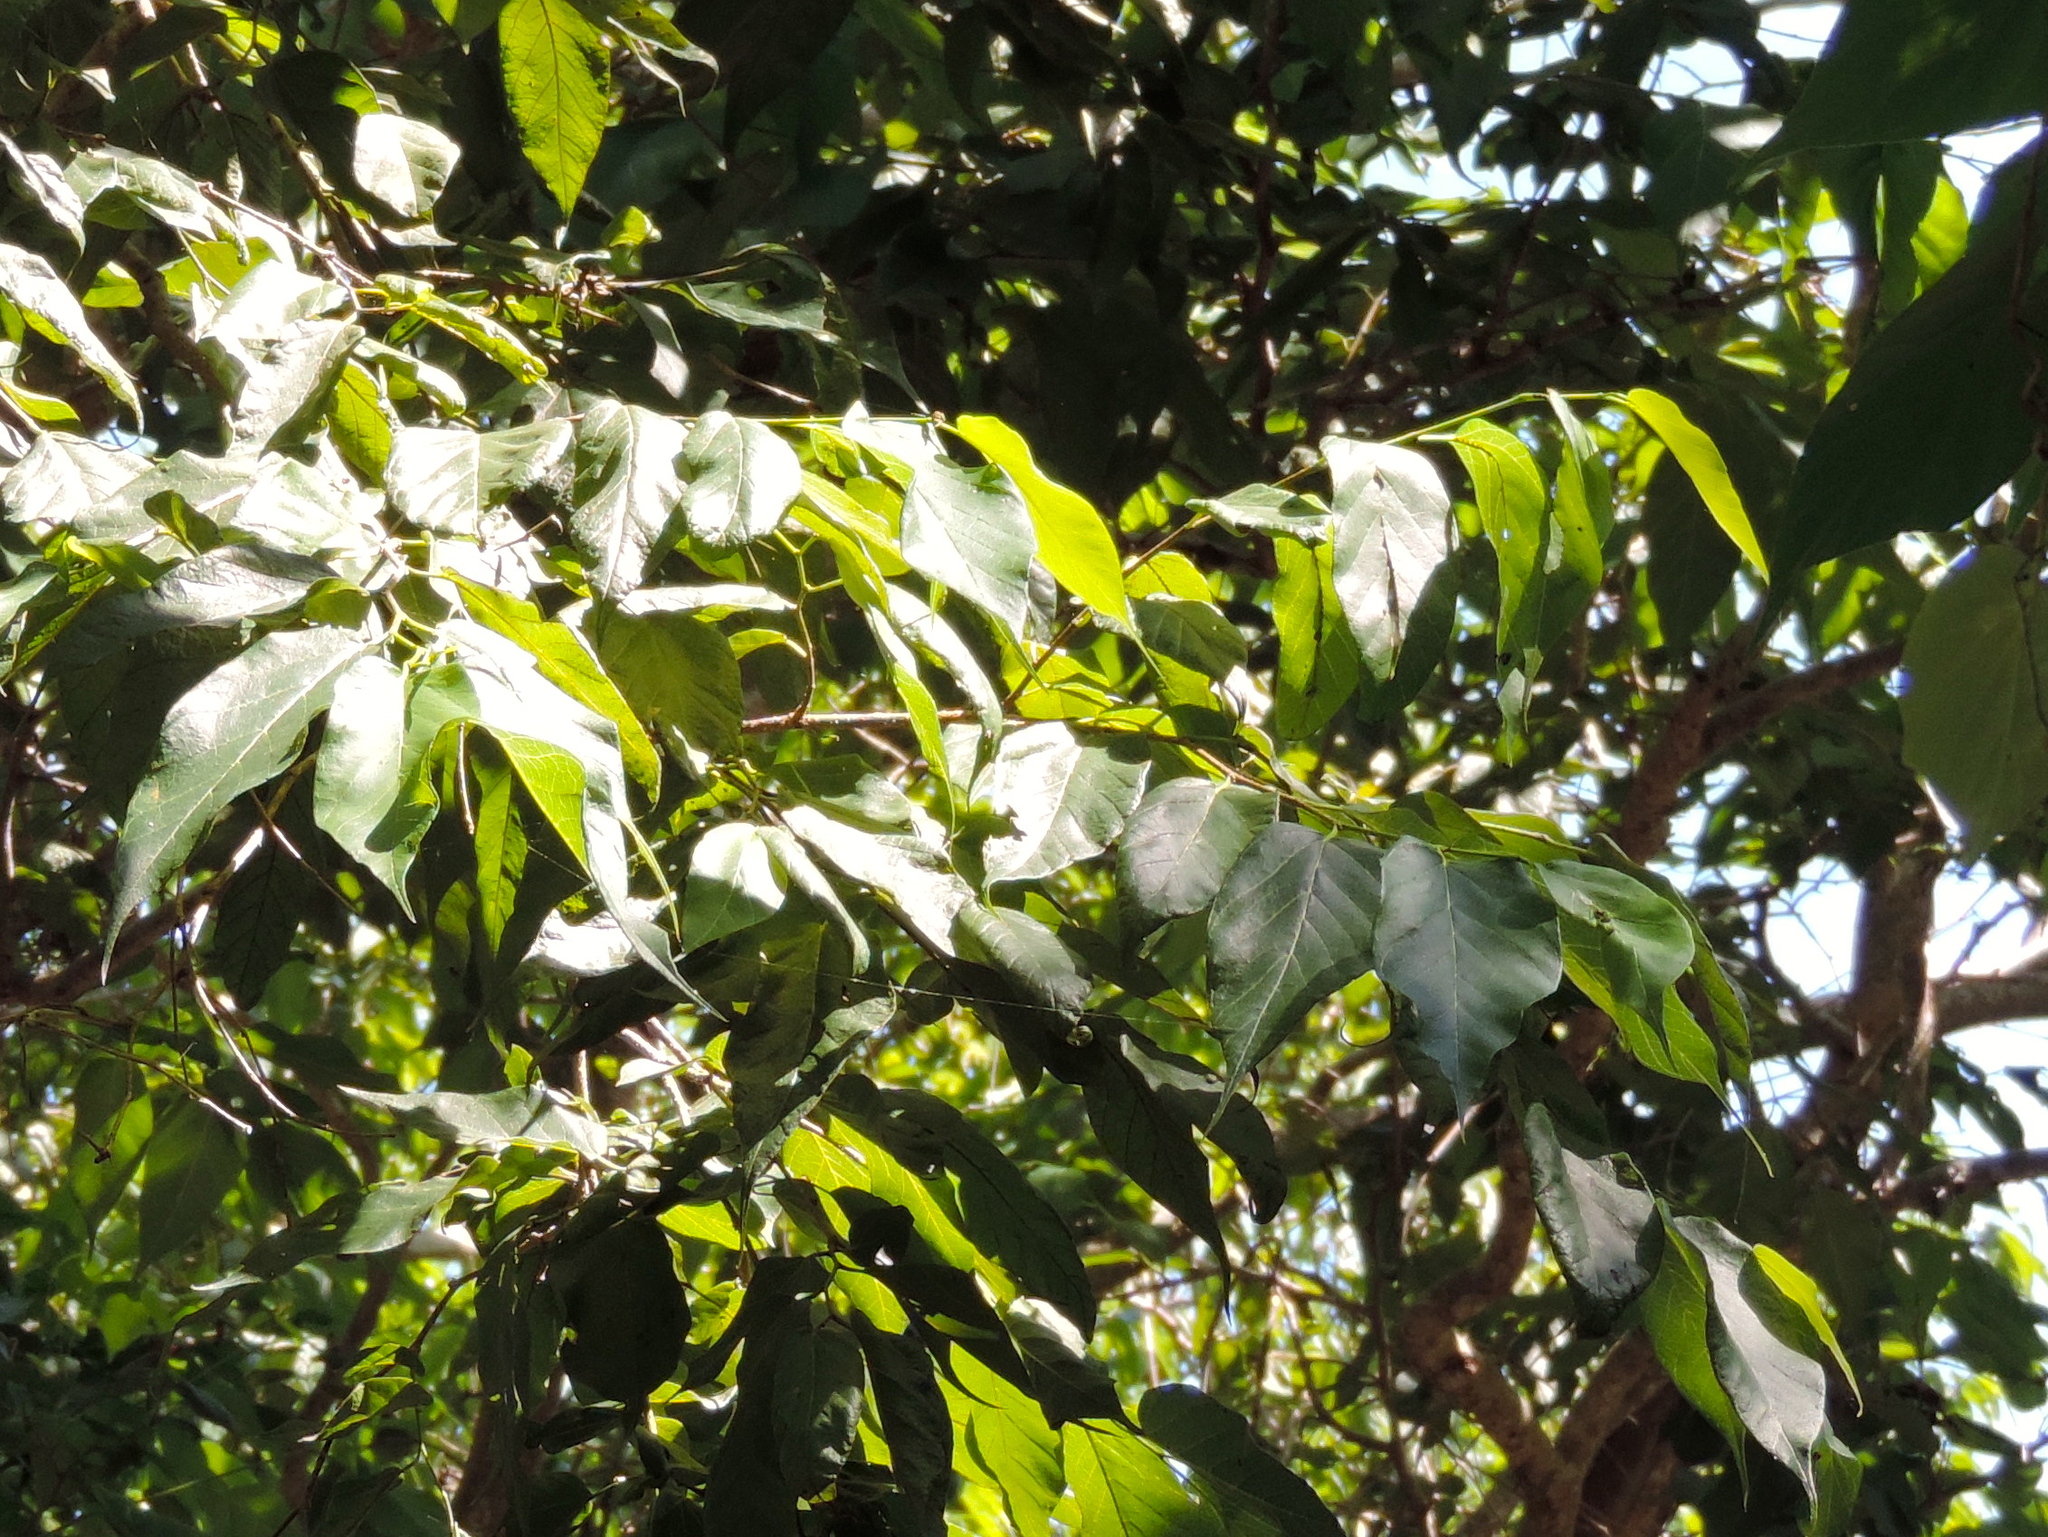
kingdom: Plantae
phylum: Tracheophyta
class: Magnoliopsida
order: Rosales
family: Moraceae
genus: Maclura
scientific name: Maclura tinctoria
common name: Old fustic
